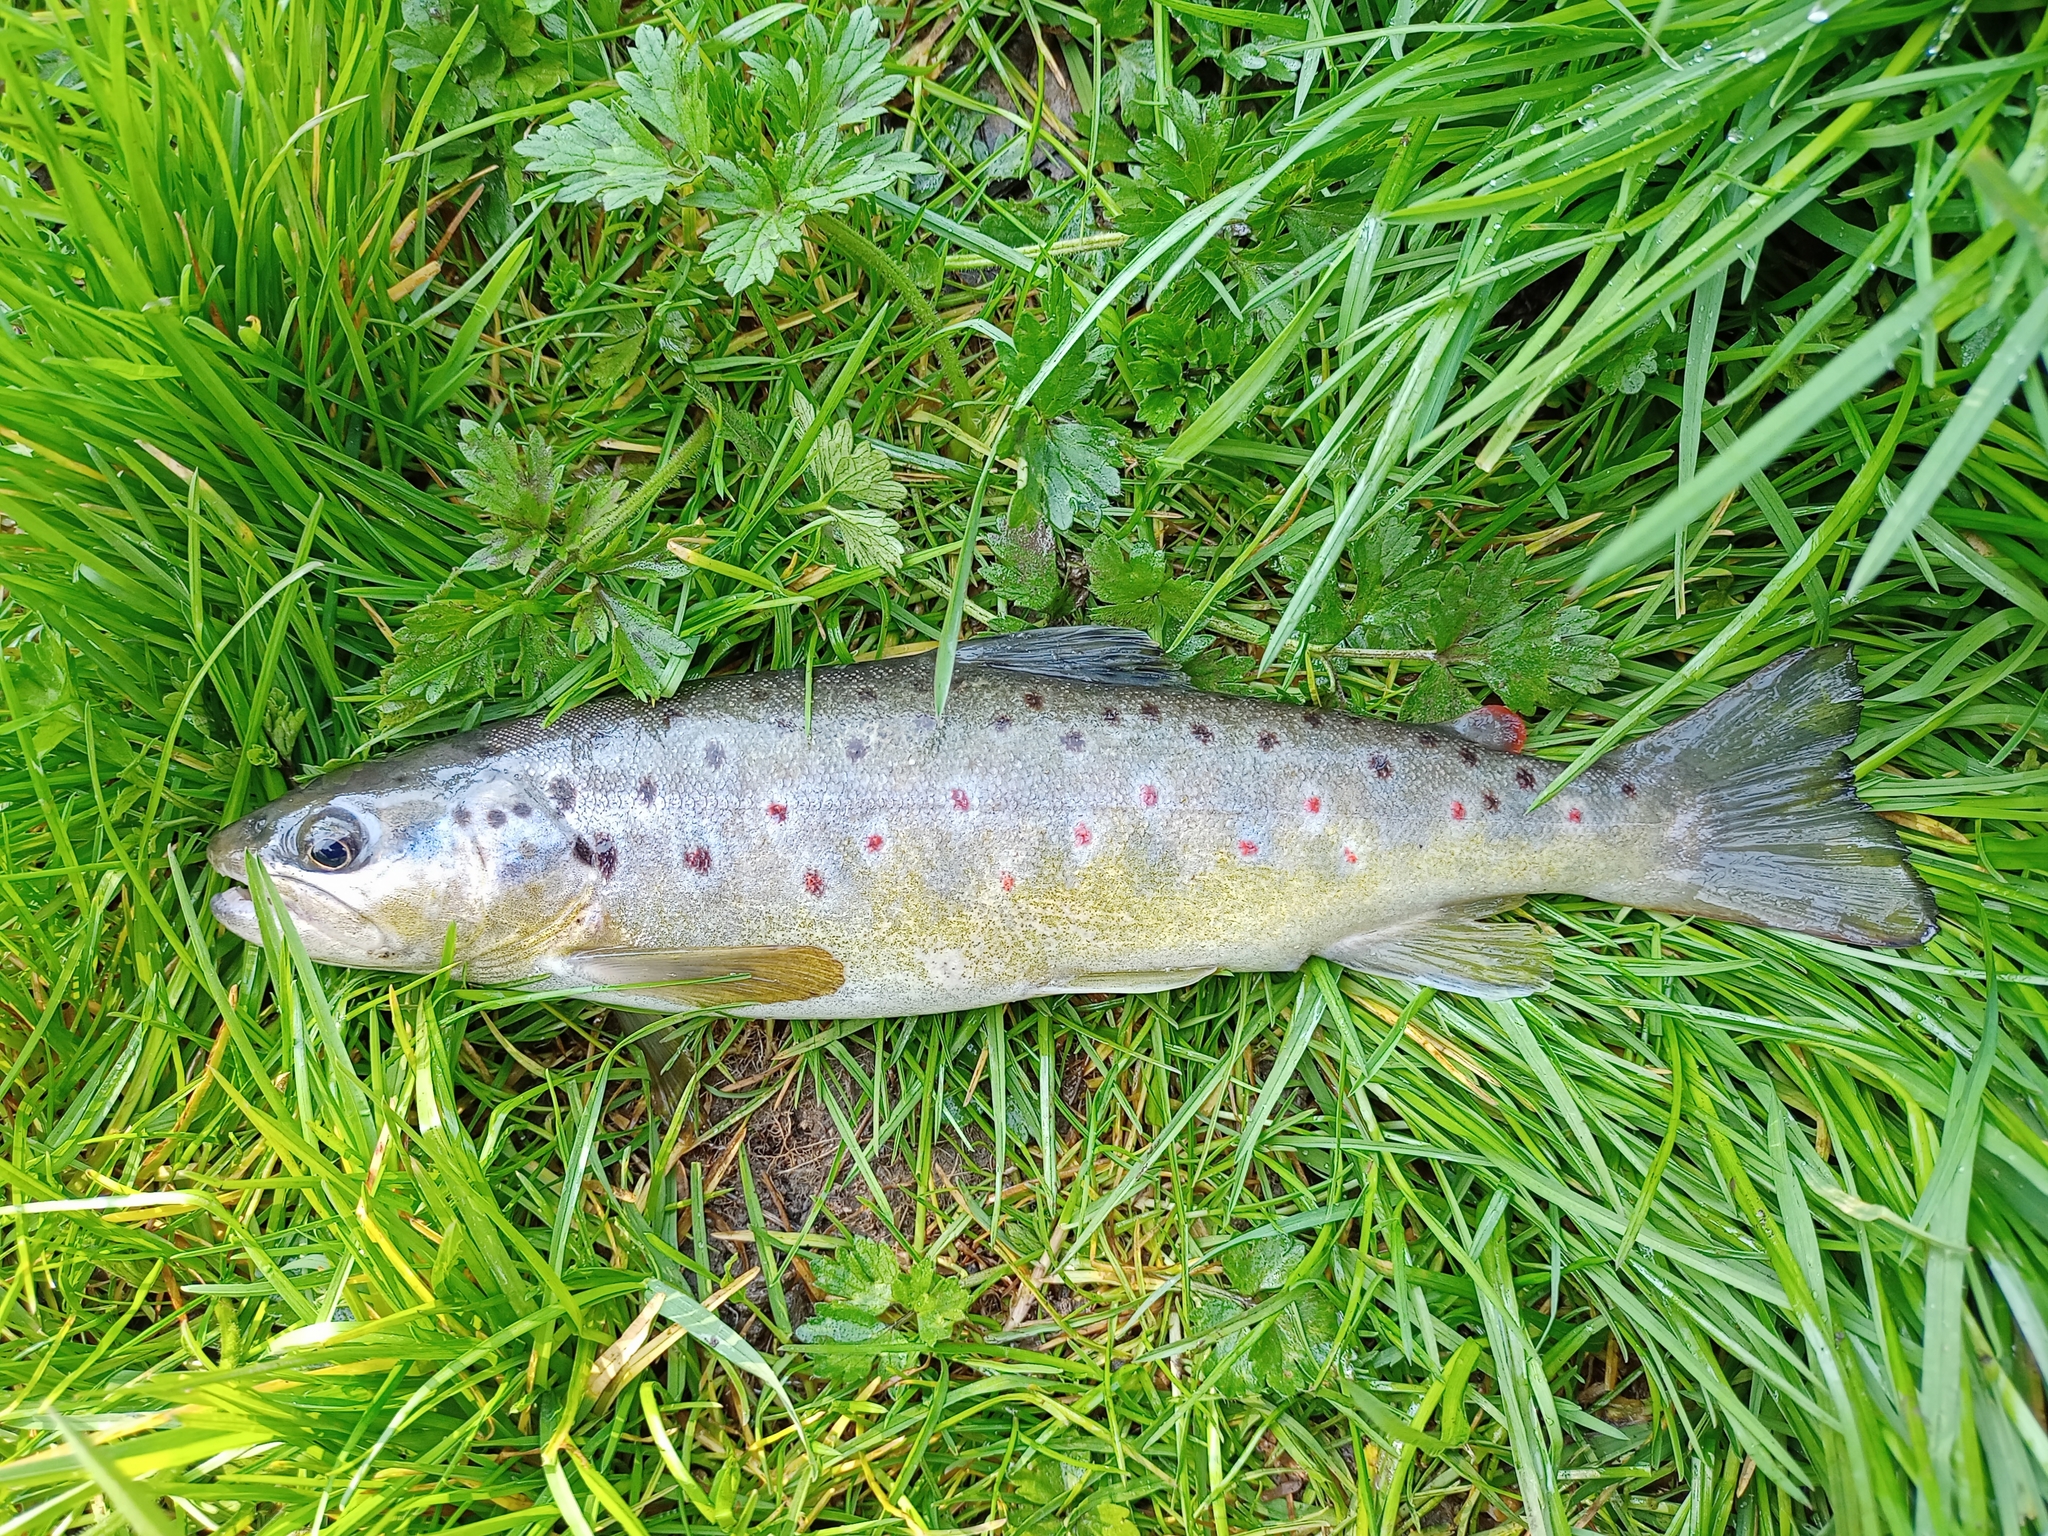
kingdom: Animalia
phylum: Chordata
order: Salmoniformes
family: Salmonidae
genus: Salmo
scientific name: Salmo trutta
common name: Brown trout
